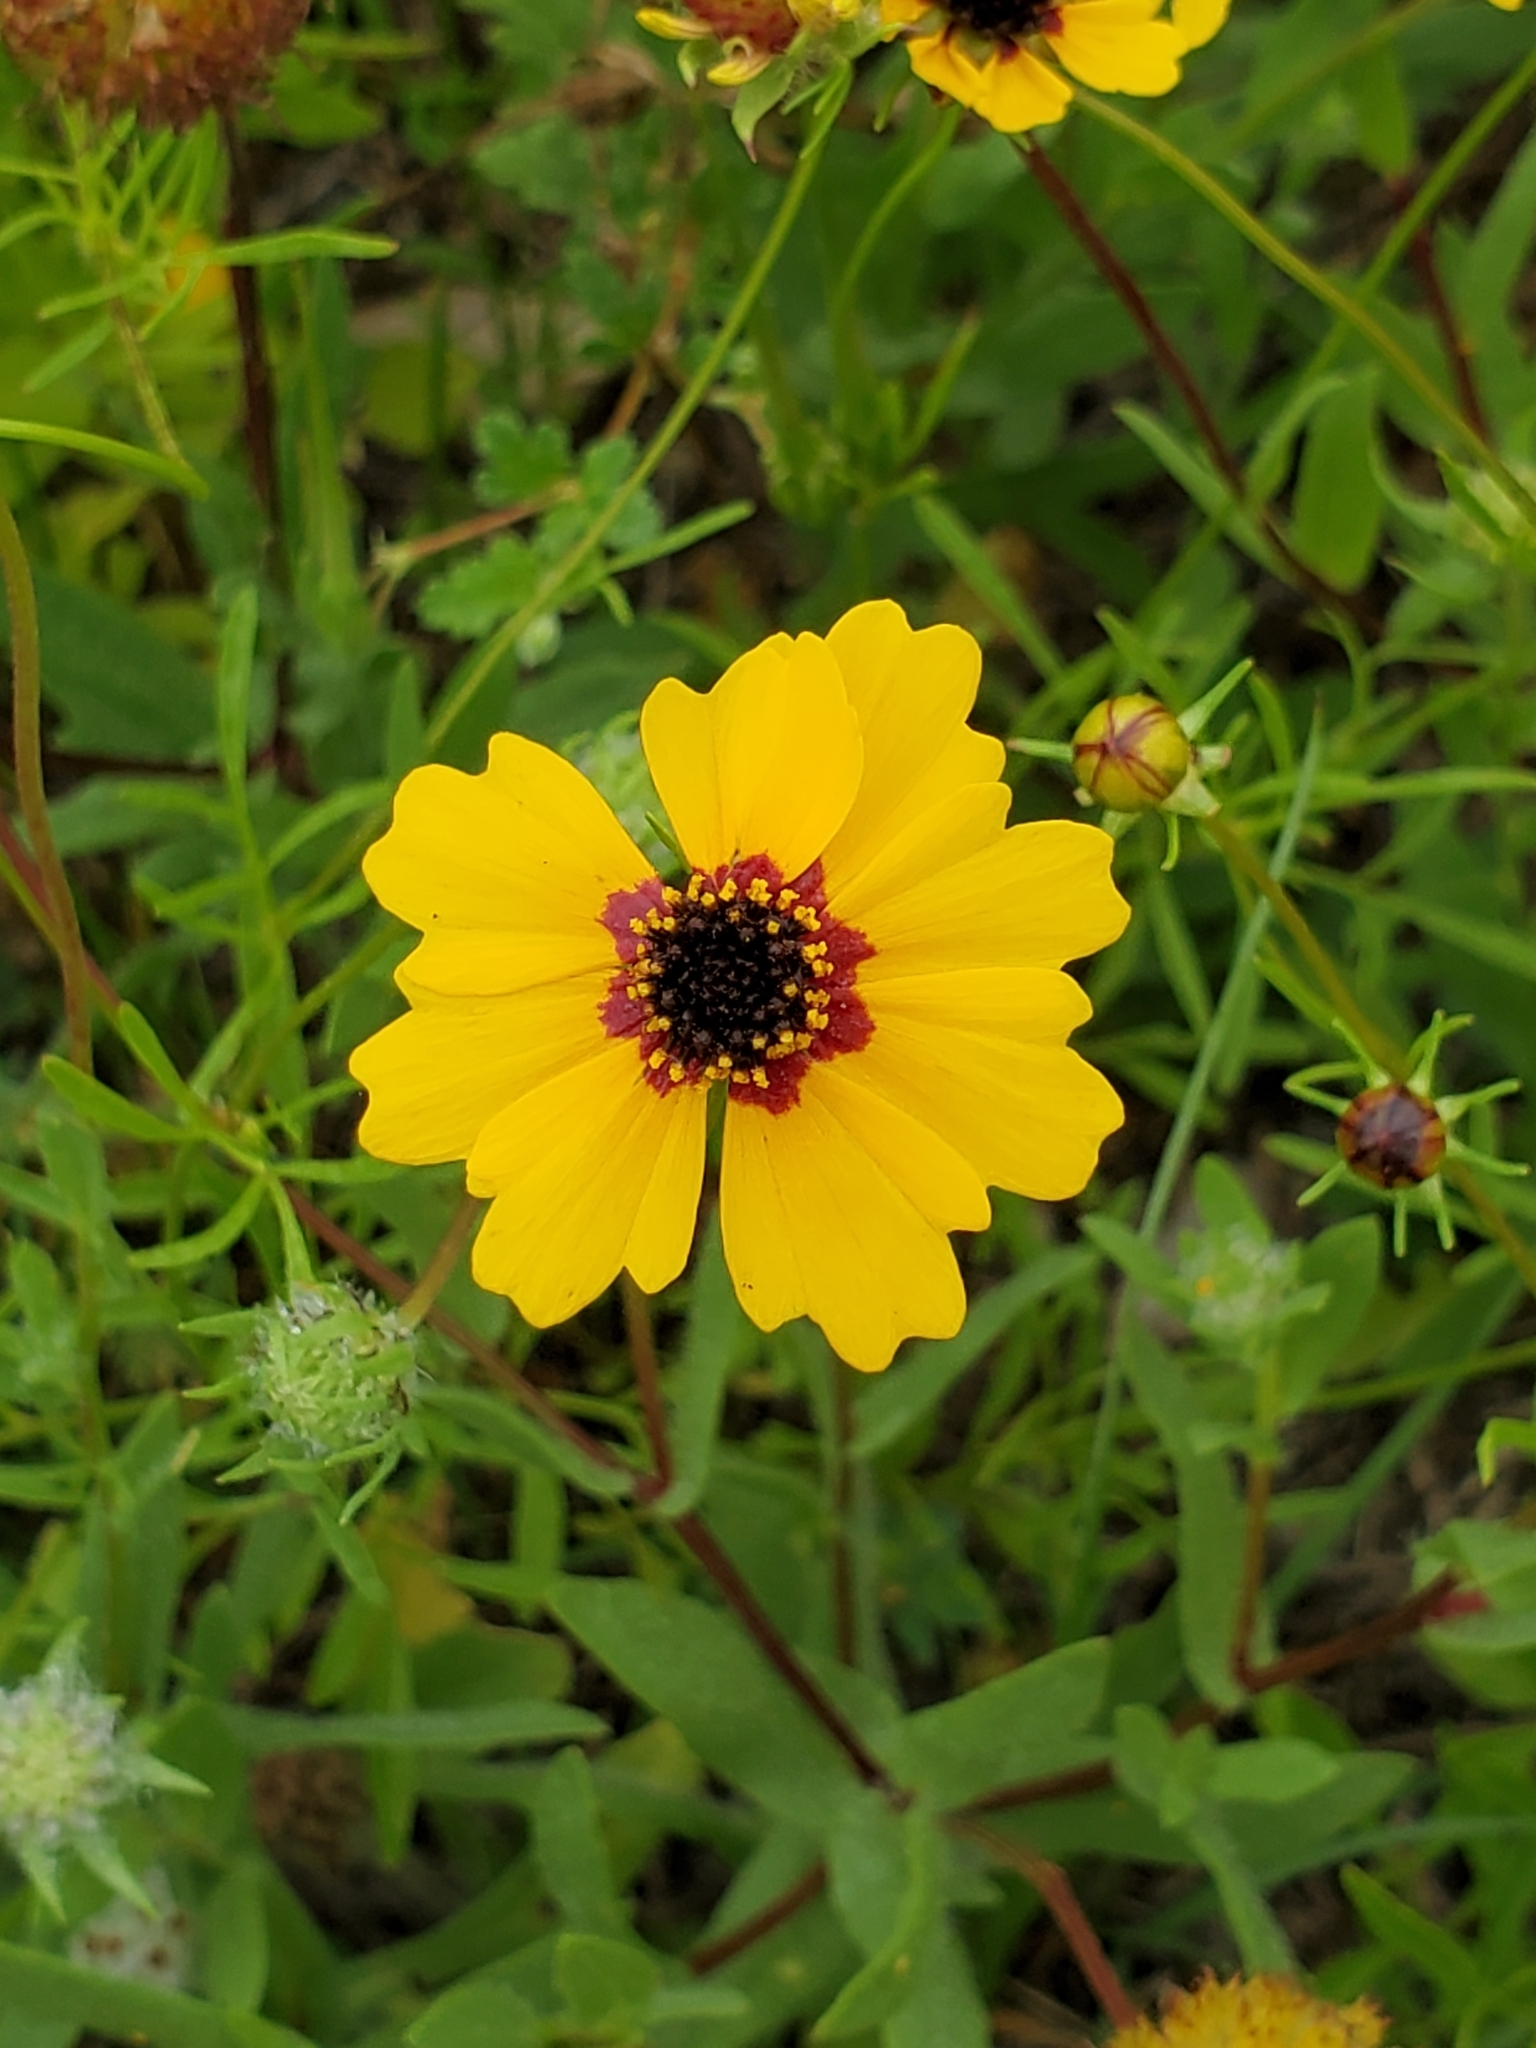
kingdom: Plantae
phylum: Tracheophyta
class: Magnoliopsida
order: Asterales
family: Asteraceae
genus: Coreopsis
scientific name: Coreopsis basalis
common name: Golden-mane coreopsis
